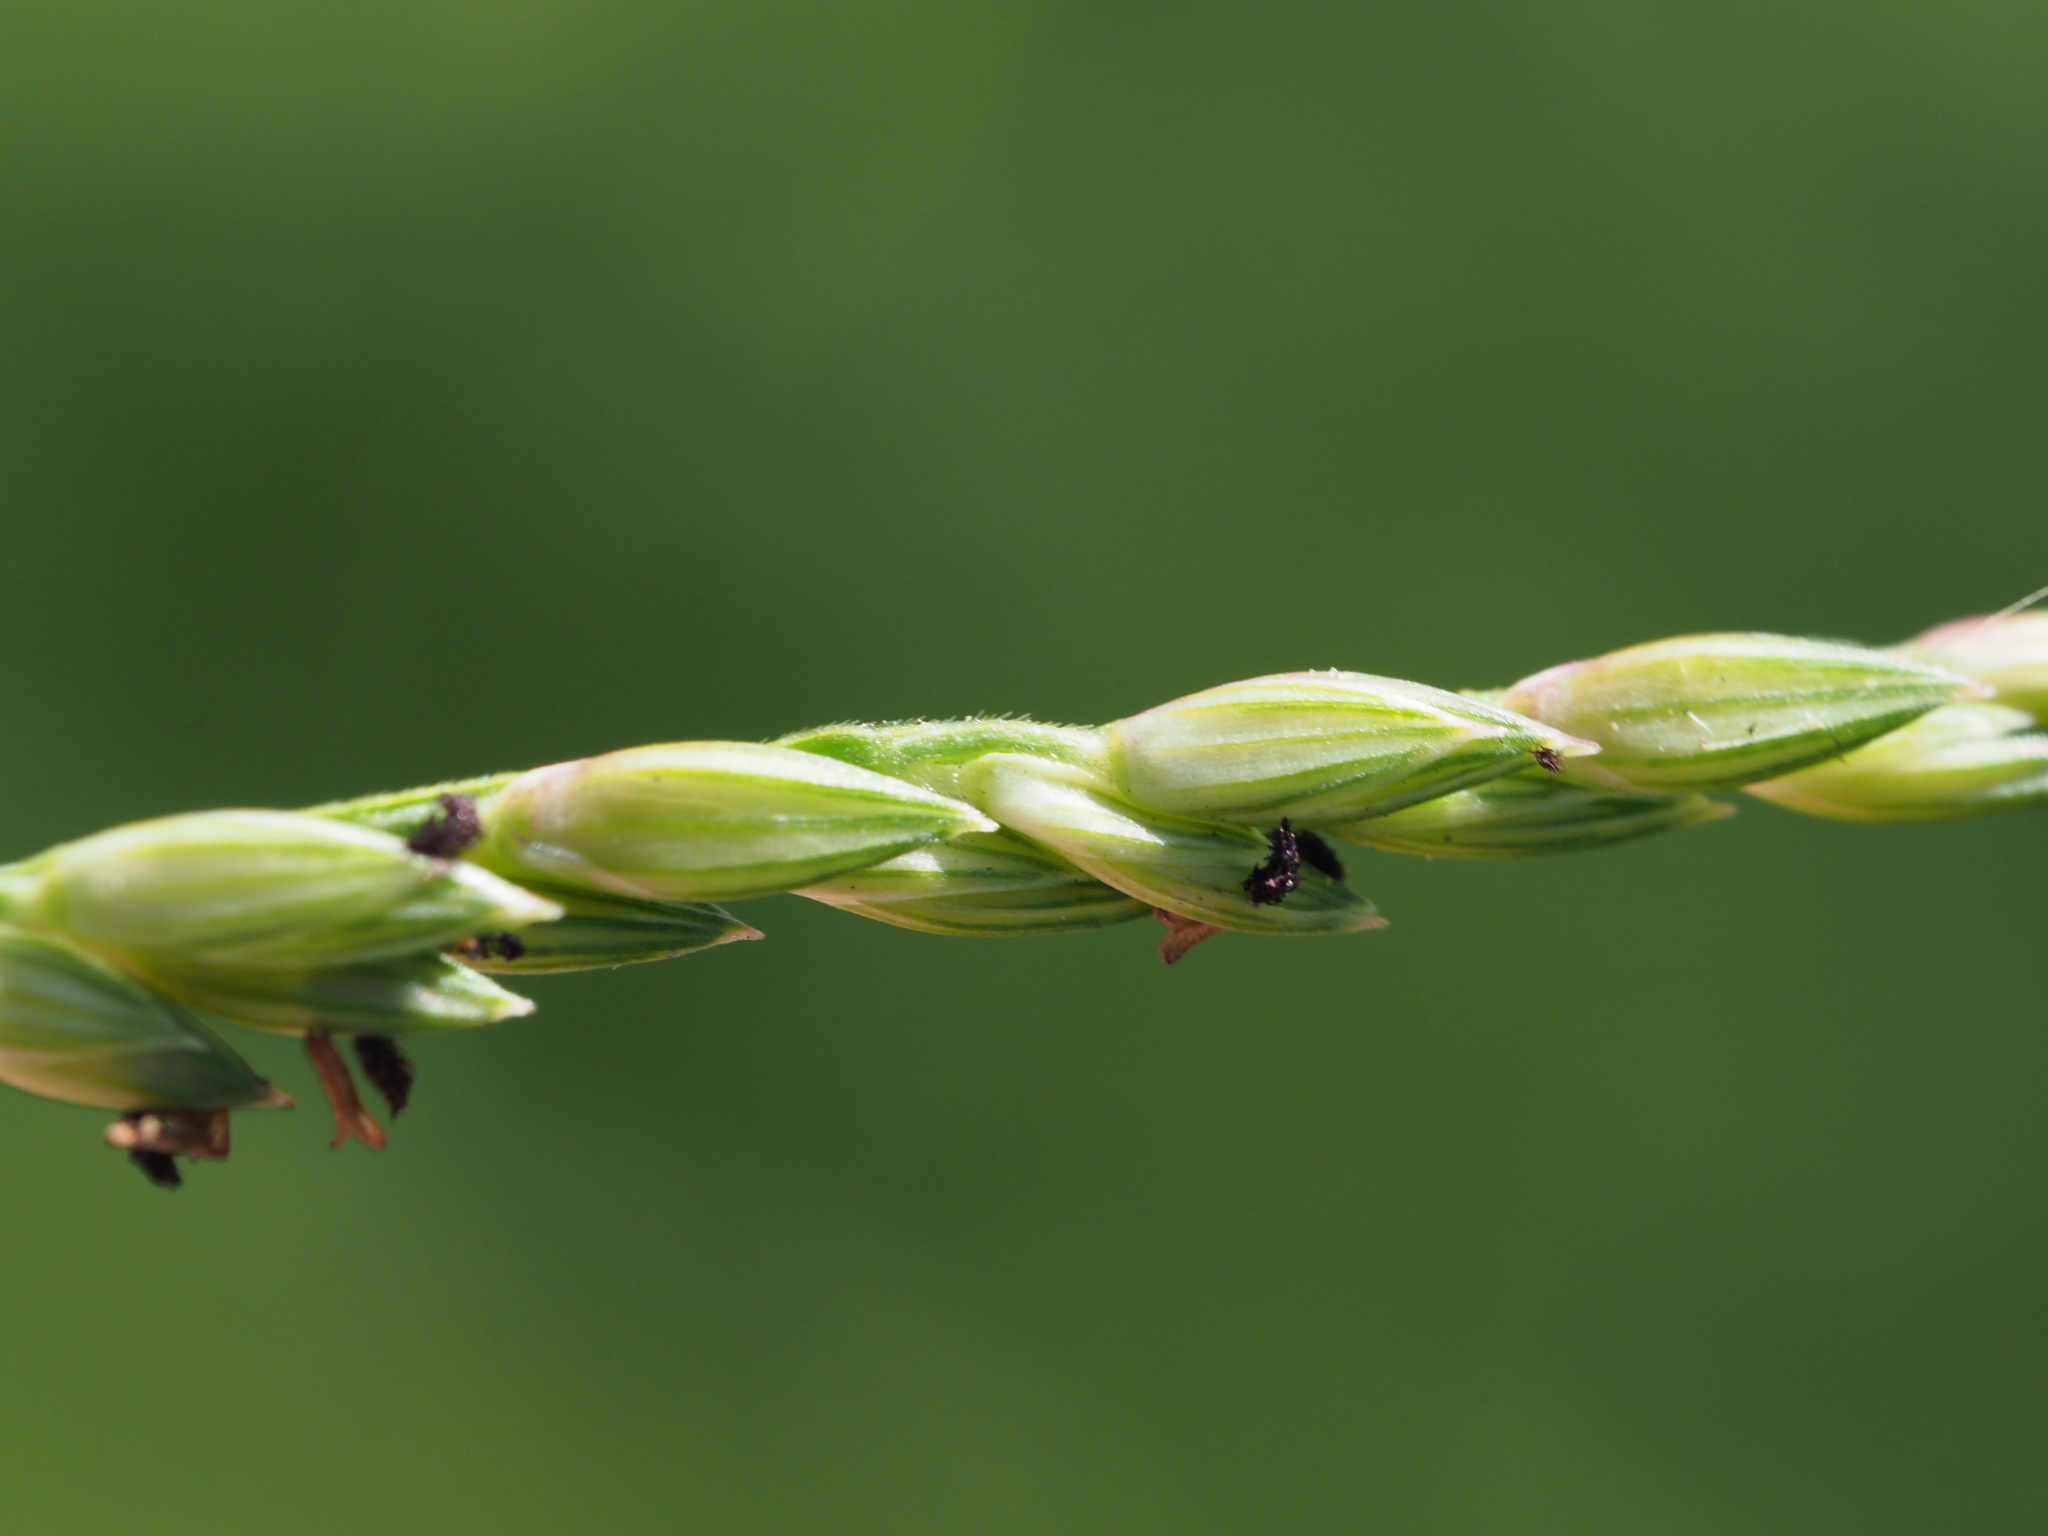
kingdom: Plantae
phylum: Tracheophyta
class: Liliopsida
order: Poales
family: Poaceae
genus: Urochloa
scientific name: Urochloa glumaris
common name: Thurston grass
